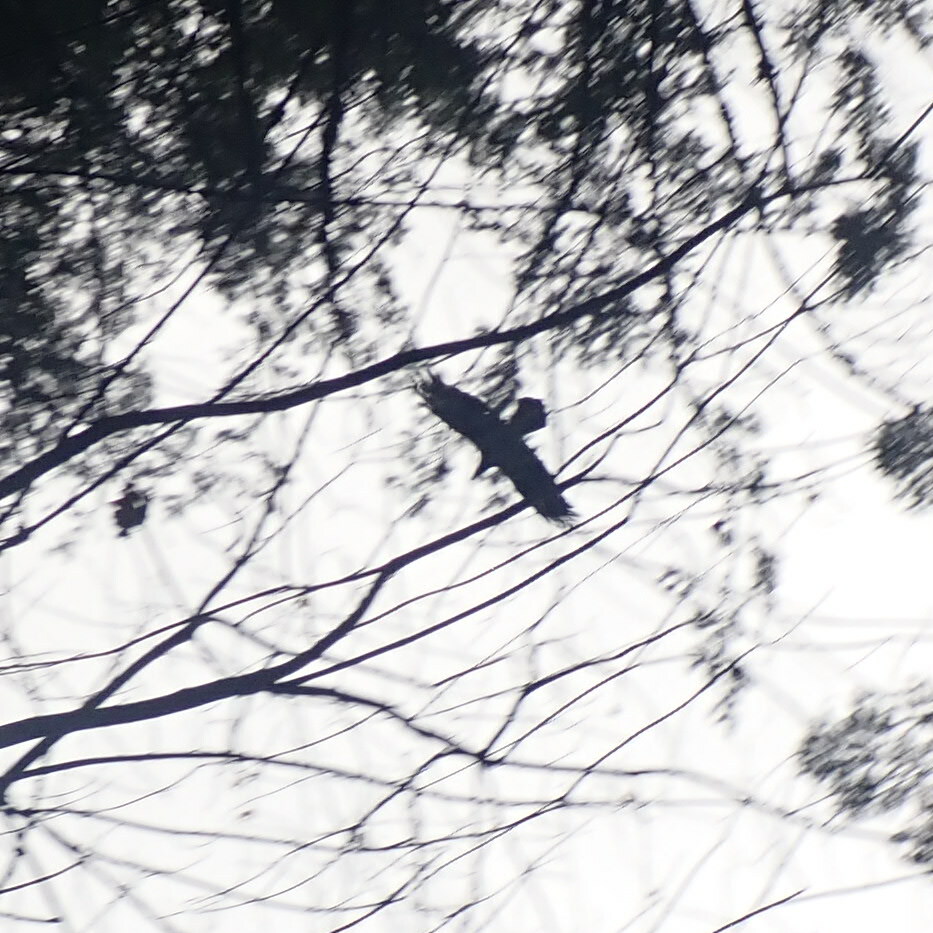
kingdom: Animalia
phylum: Chordata
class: Aves
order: Passeriformes
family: Corvidae
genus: Corvus
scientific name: Corvus corax
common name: Common raven
